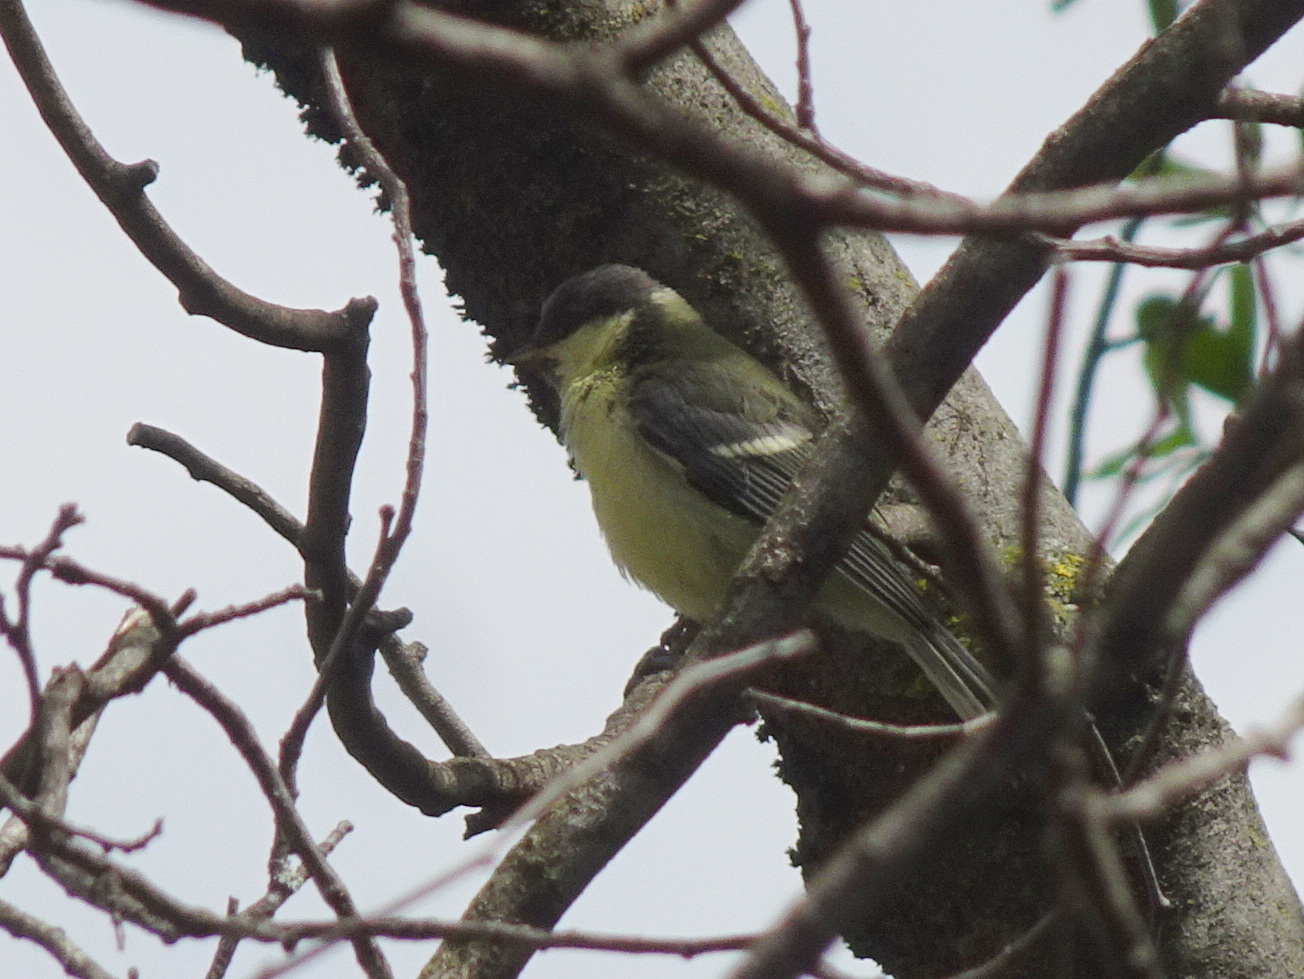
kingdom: Animalia
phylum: Chordata
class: Aves
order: Passeriformes
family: Paridae
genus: Parus
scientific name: Parus major
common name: Great tit
